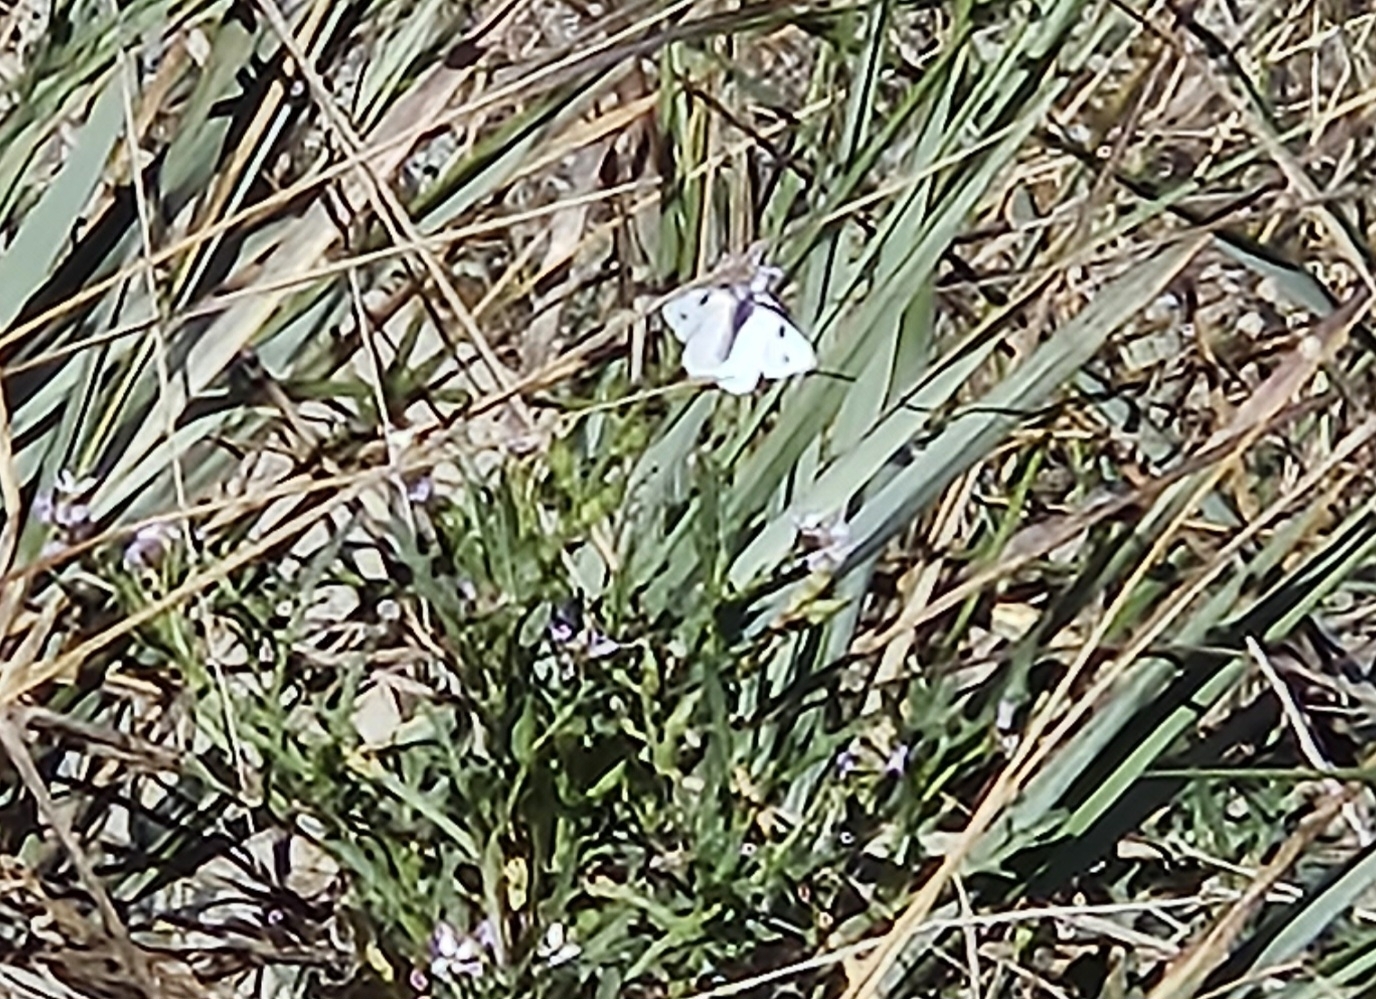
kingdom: Animalia
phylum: Arthropoda
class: Insecta
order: Lepidoptera
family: Pieridae
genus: Pieris
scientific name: Pieris rapae
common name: Small white
